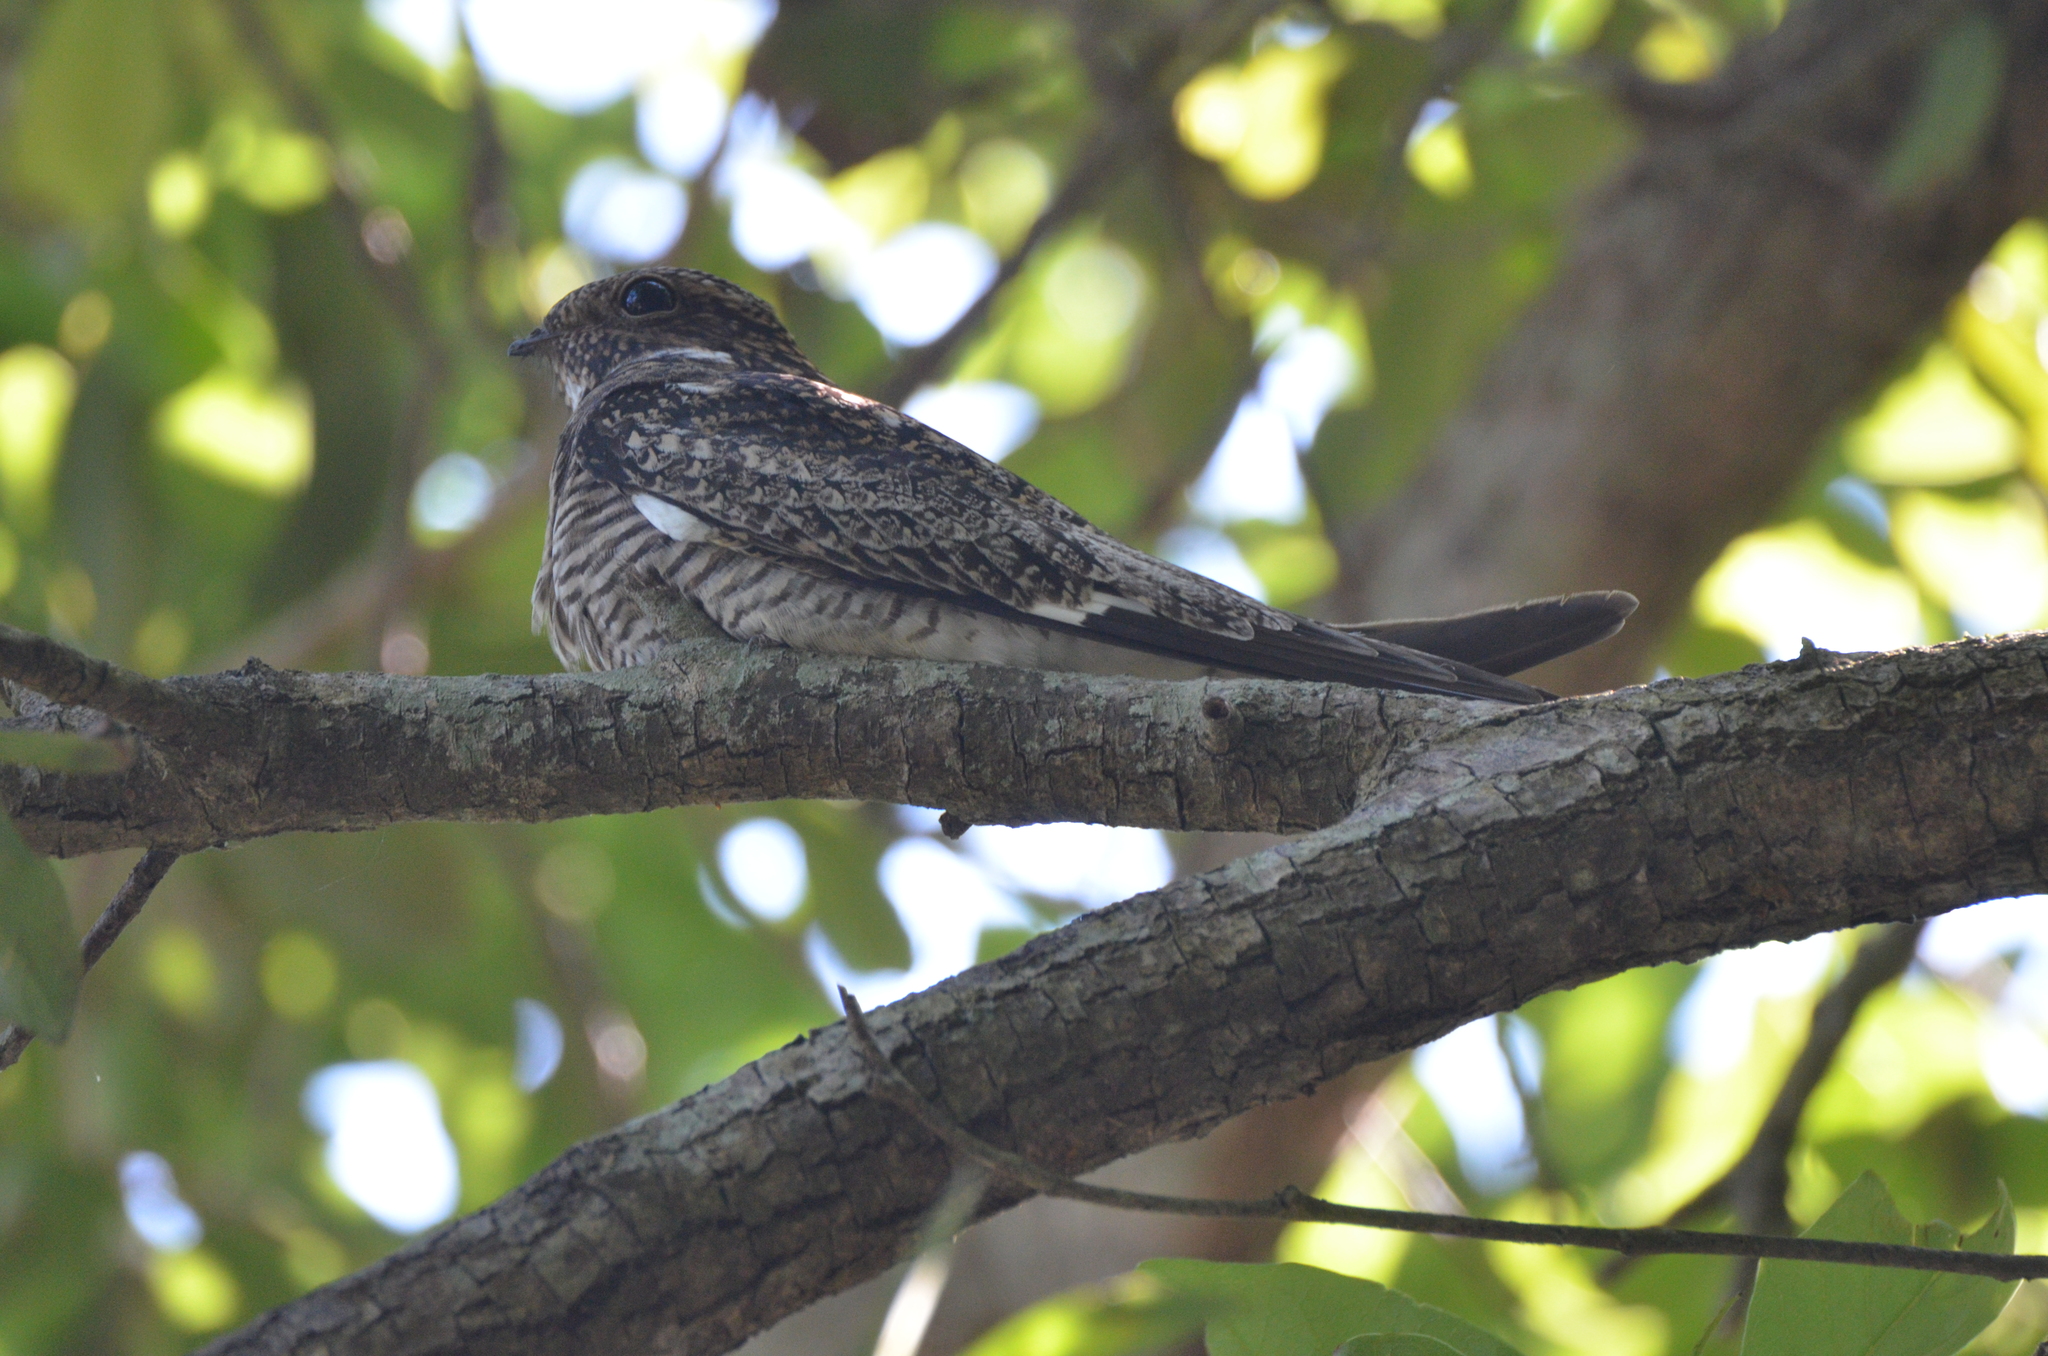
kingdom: Animalia
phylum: Chordata
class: Aves
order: Caprimulgiformes
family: Caprimulgidae
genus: Chordeiles
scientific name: Chordeiles minor
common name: Common nighthawk
